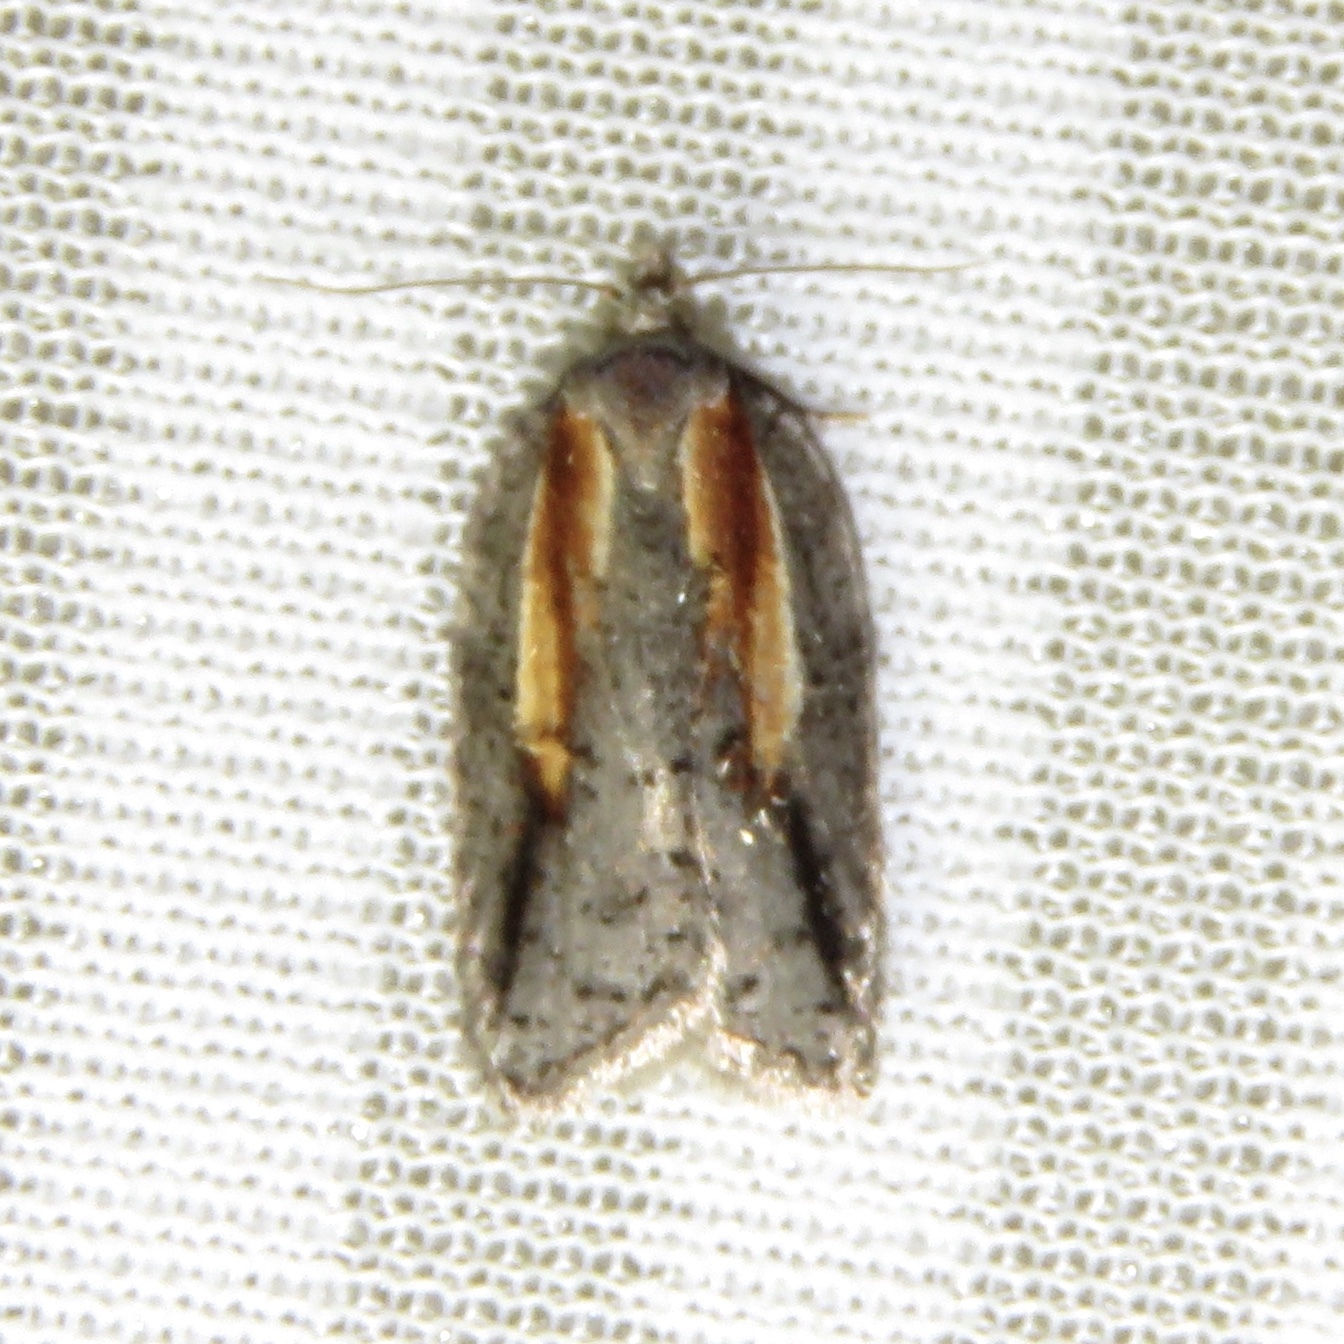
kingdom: Animalia
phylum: Arthropoda
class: Insecta
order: Lepidoptera
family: Tortricidae
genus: Acleris
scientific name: Acleris youngana
